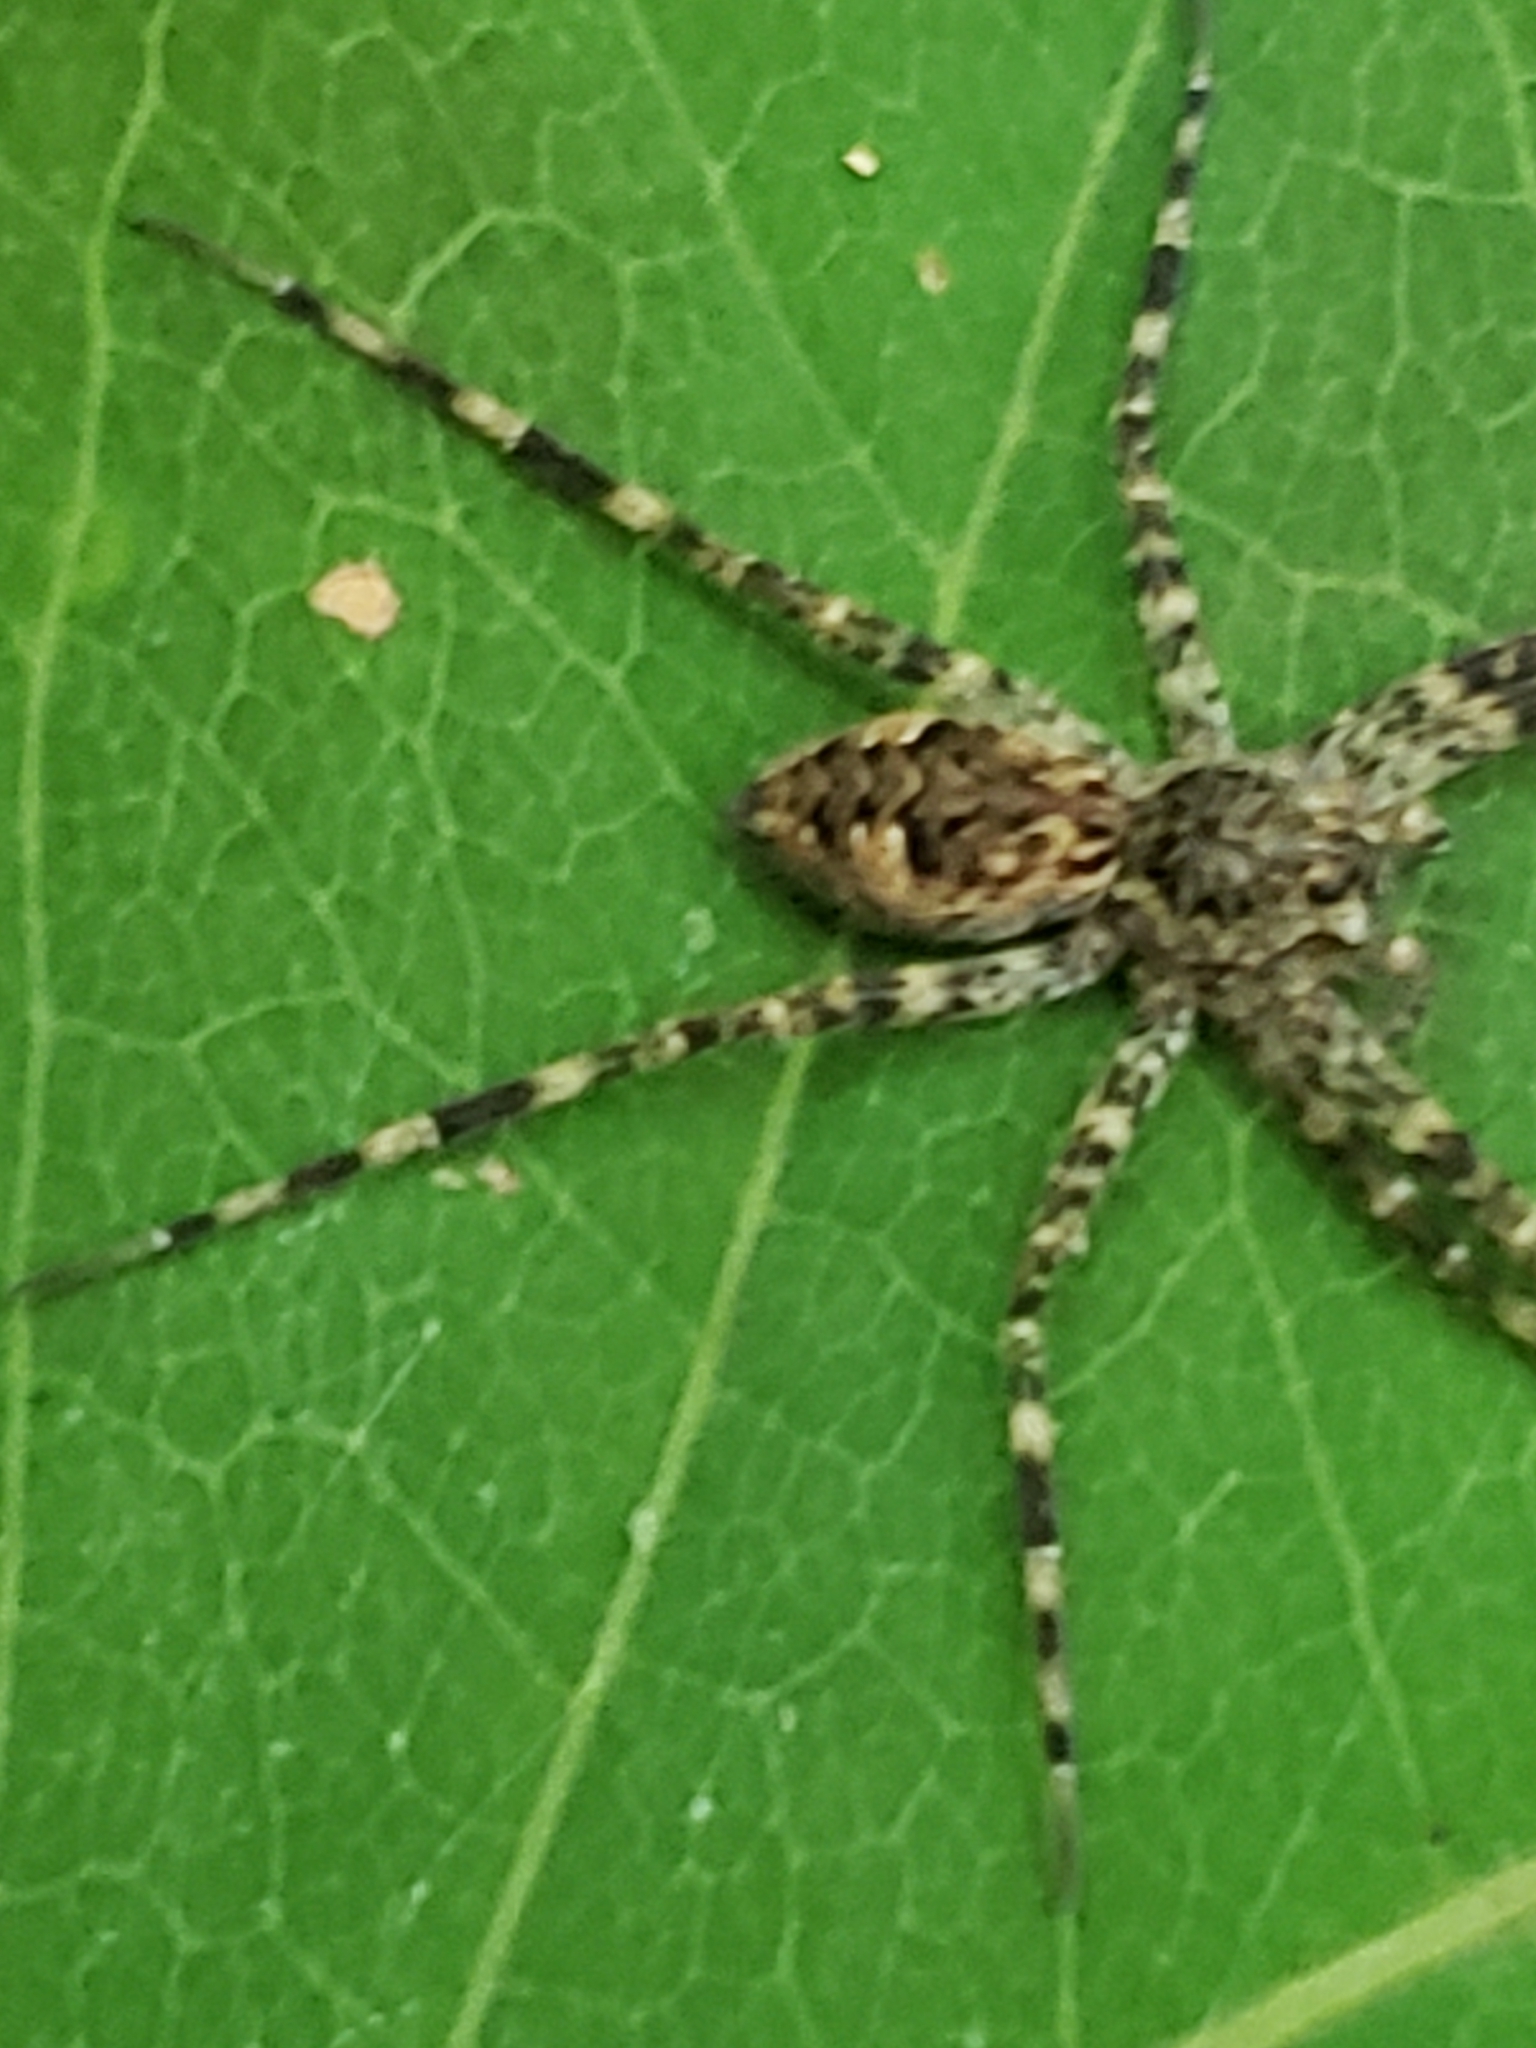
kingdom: Animalia
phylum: Arthropoda
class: Arachnida
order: Araneae
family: Pisauridae
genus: Dolomedes
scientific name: Dolomedes tenebrosus
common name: Dark fishing spider
